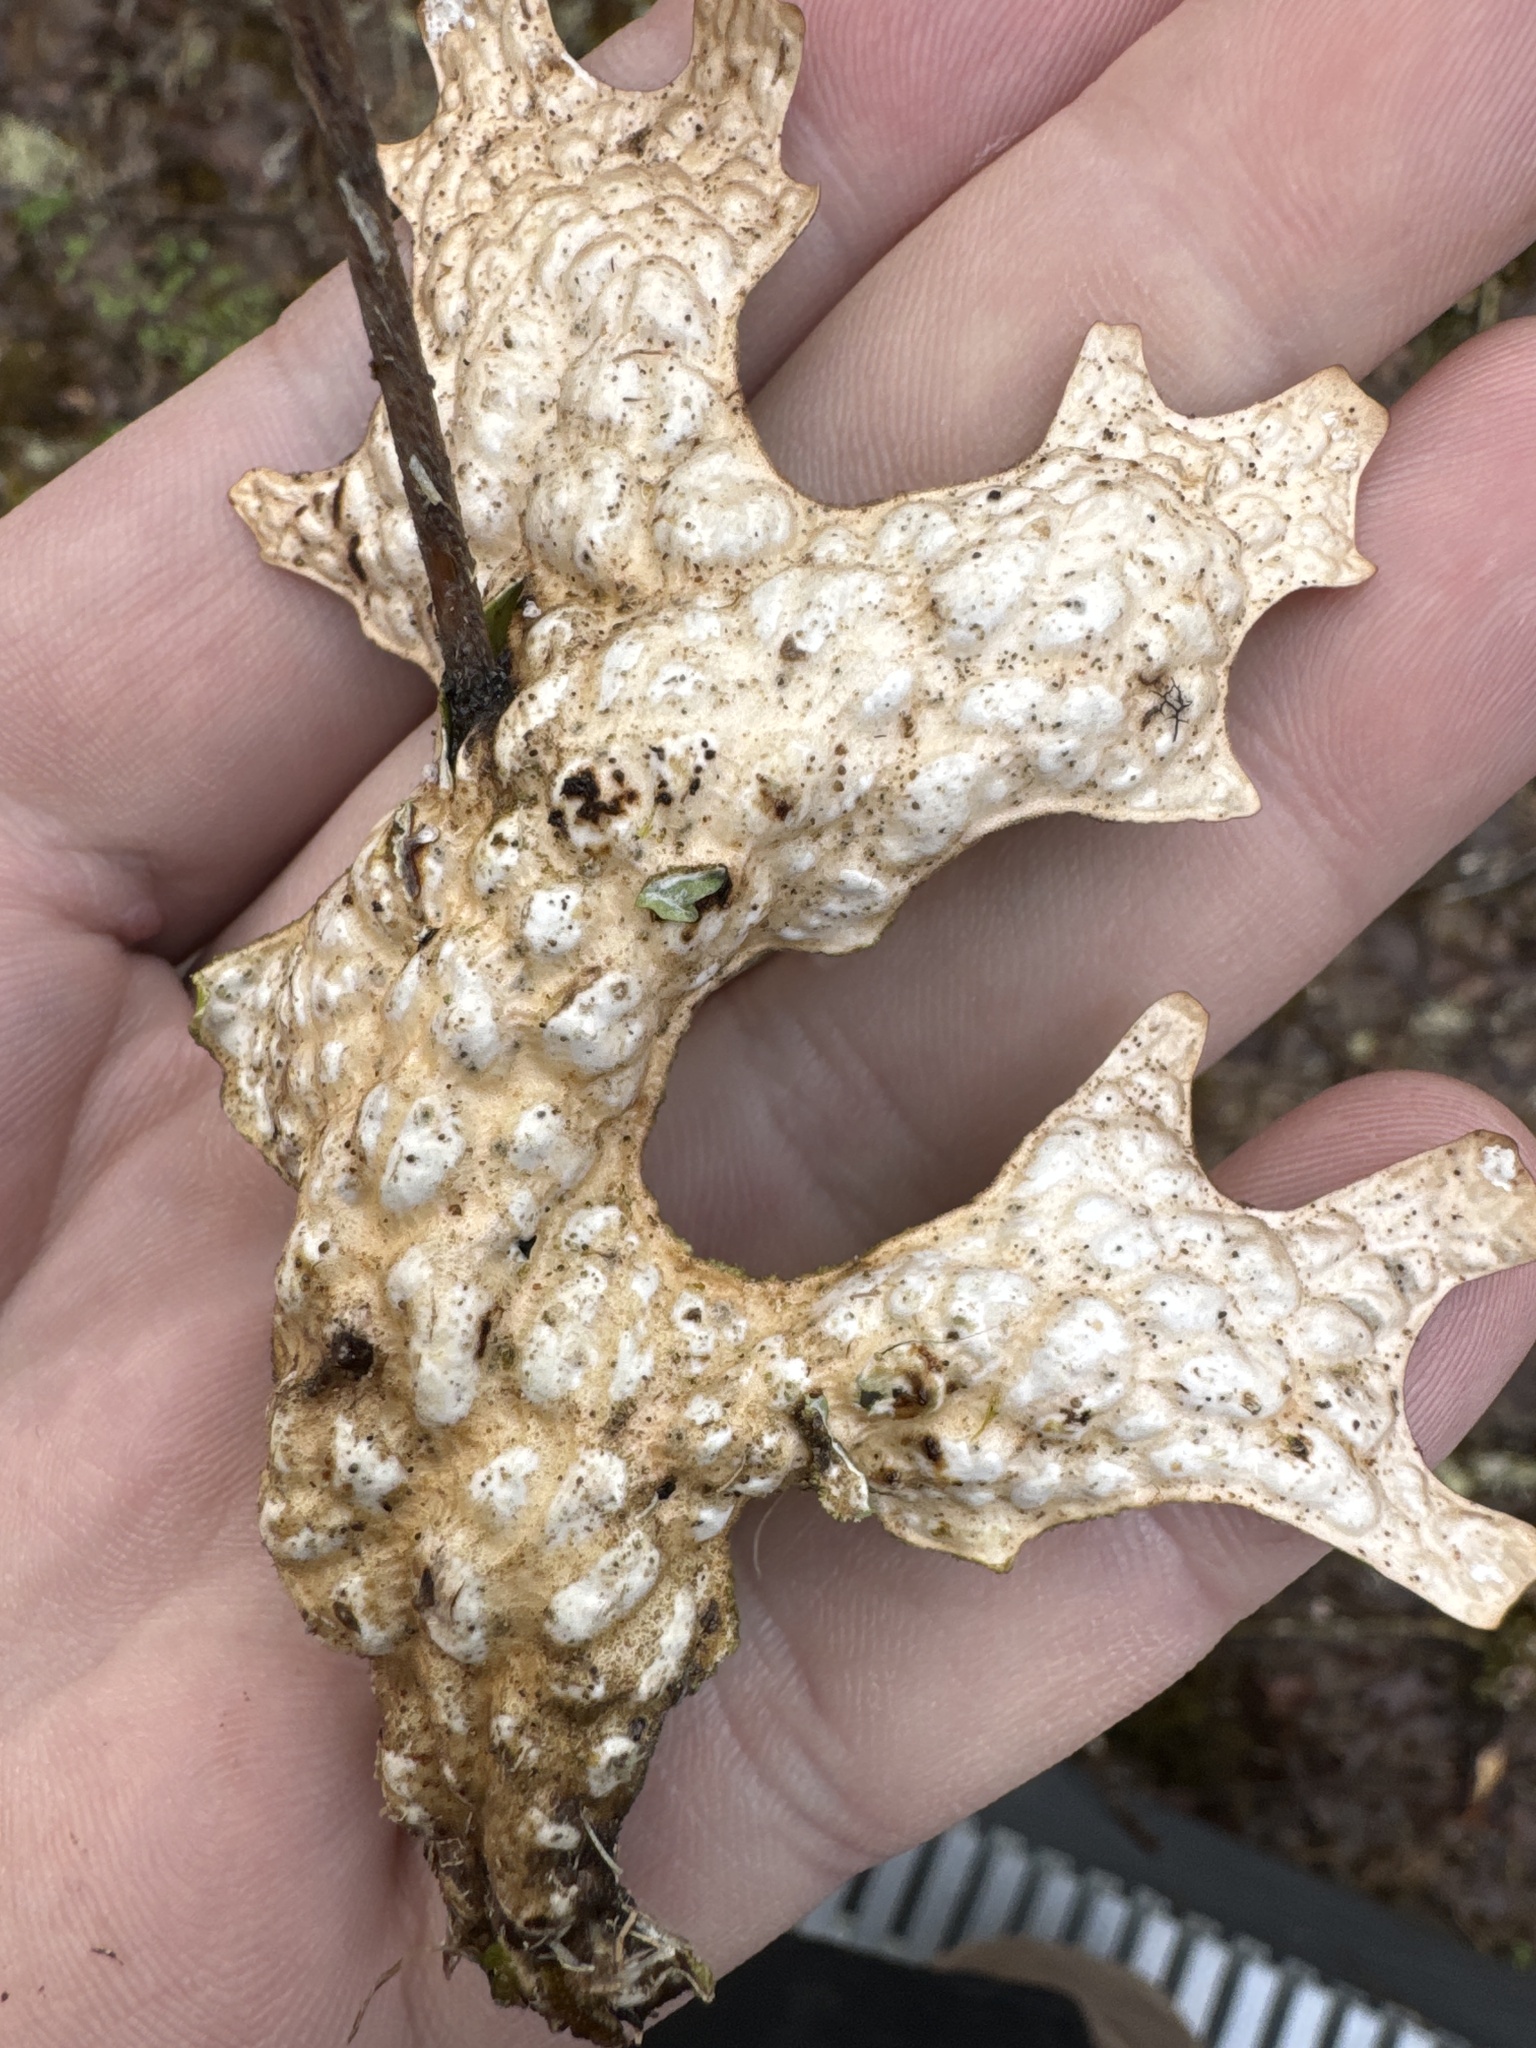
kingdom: Fungi
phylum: Ascomycota
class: Lecanoromycetes
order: Peltigerales
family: Lobariaceae
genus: Lobaria
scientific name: Lobaria pulmonaria
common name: Lungwort
